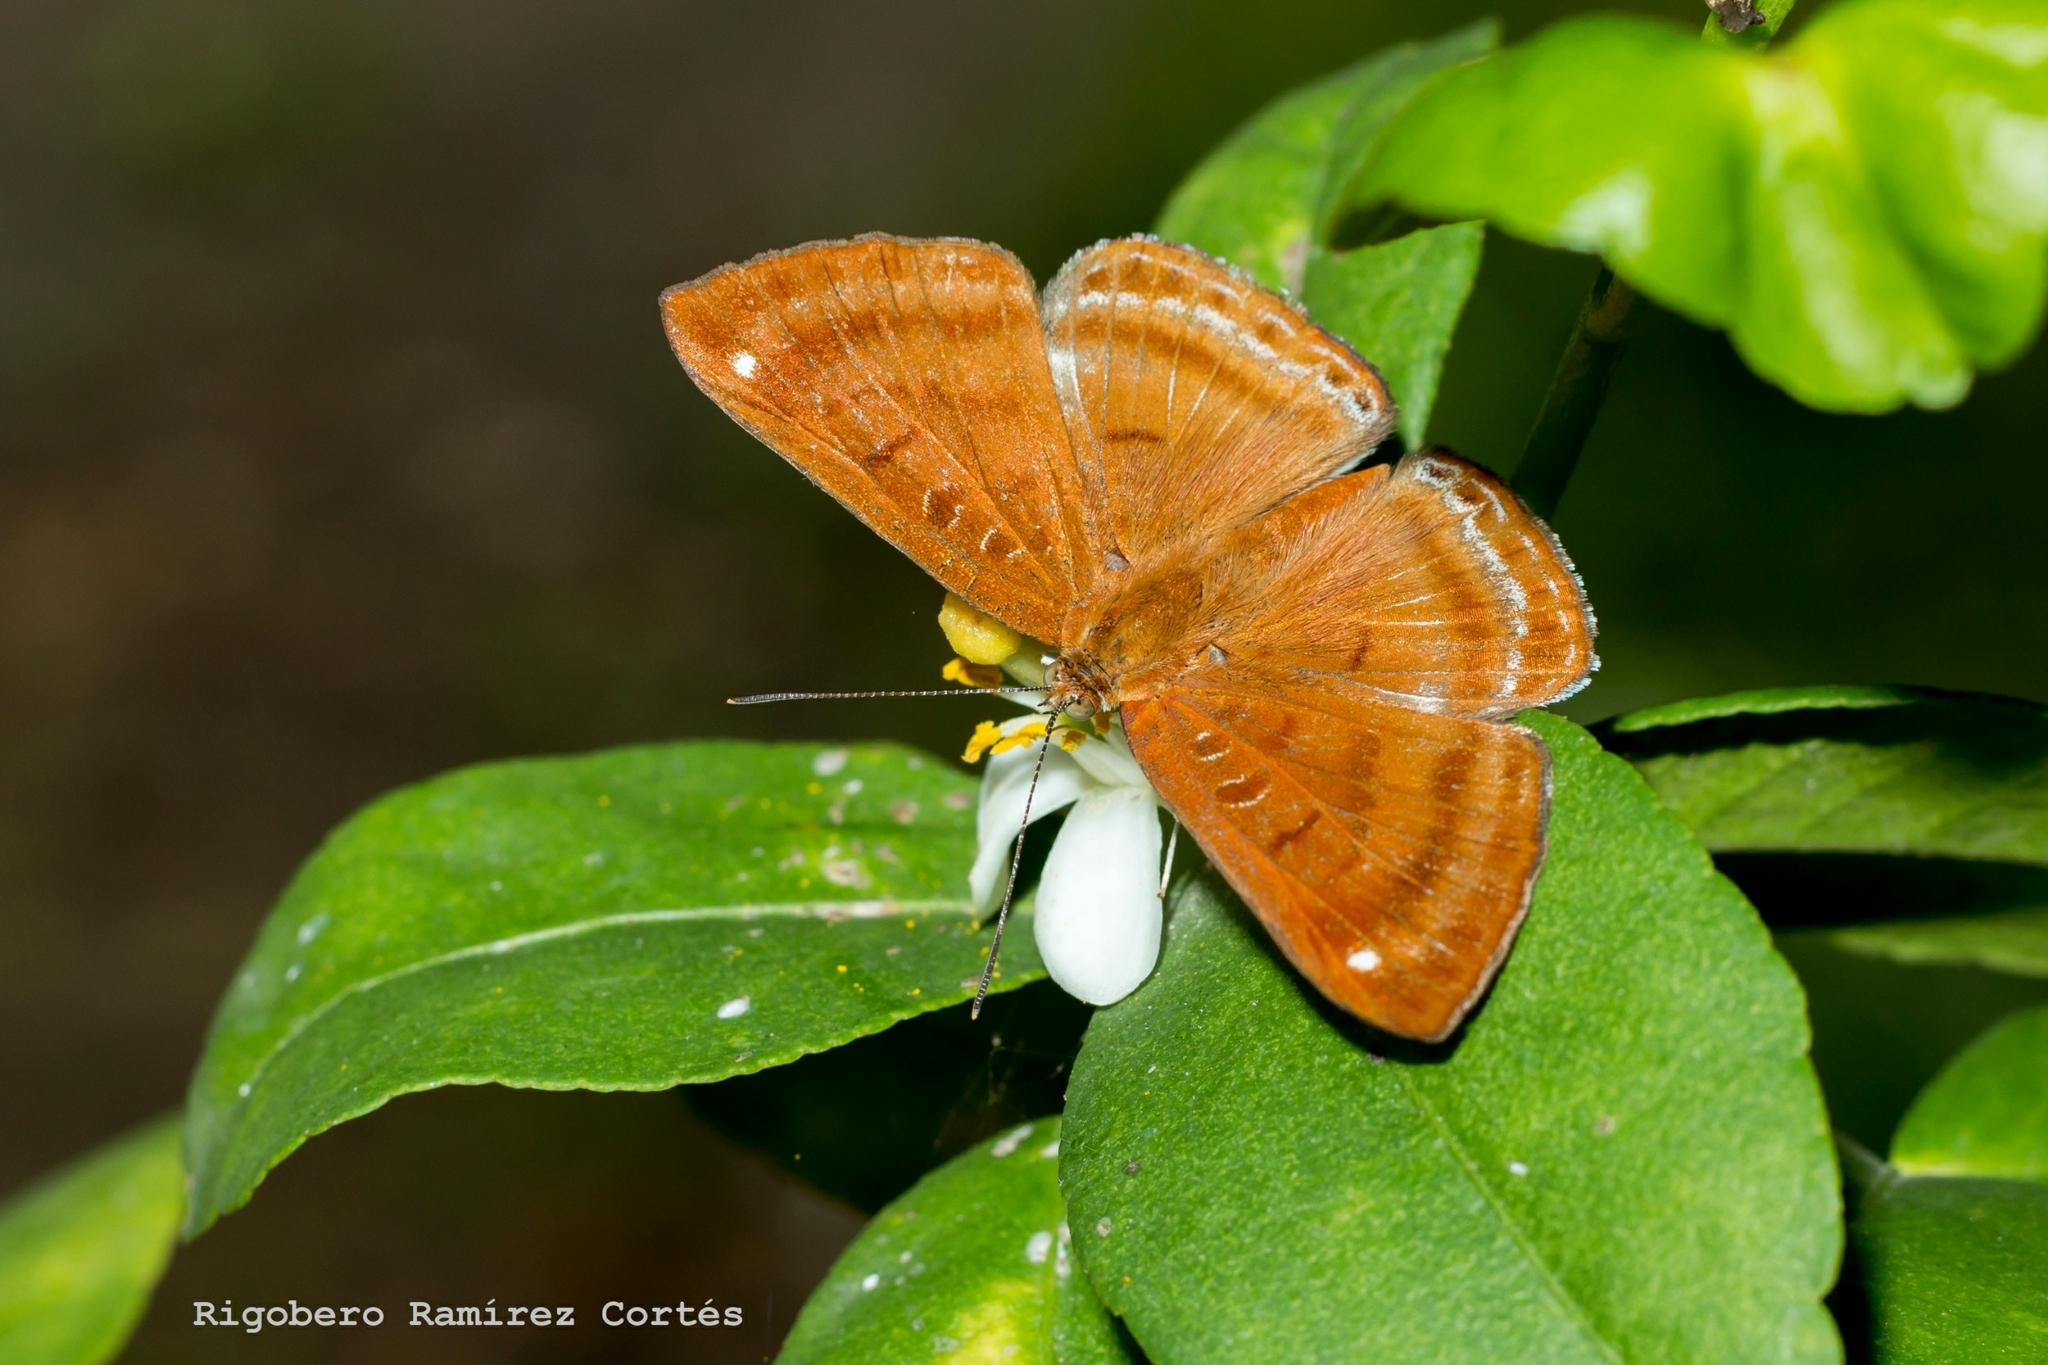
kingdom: Animalia
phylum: Arthropoda
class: Insecta
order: Lepidoptera
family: Riodinidae
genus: Synargis
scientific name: Synargis mycone
